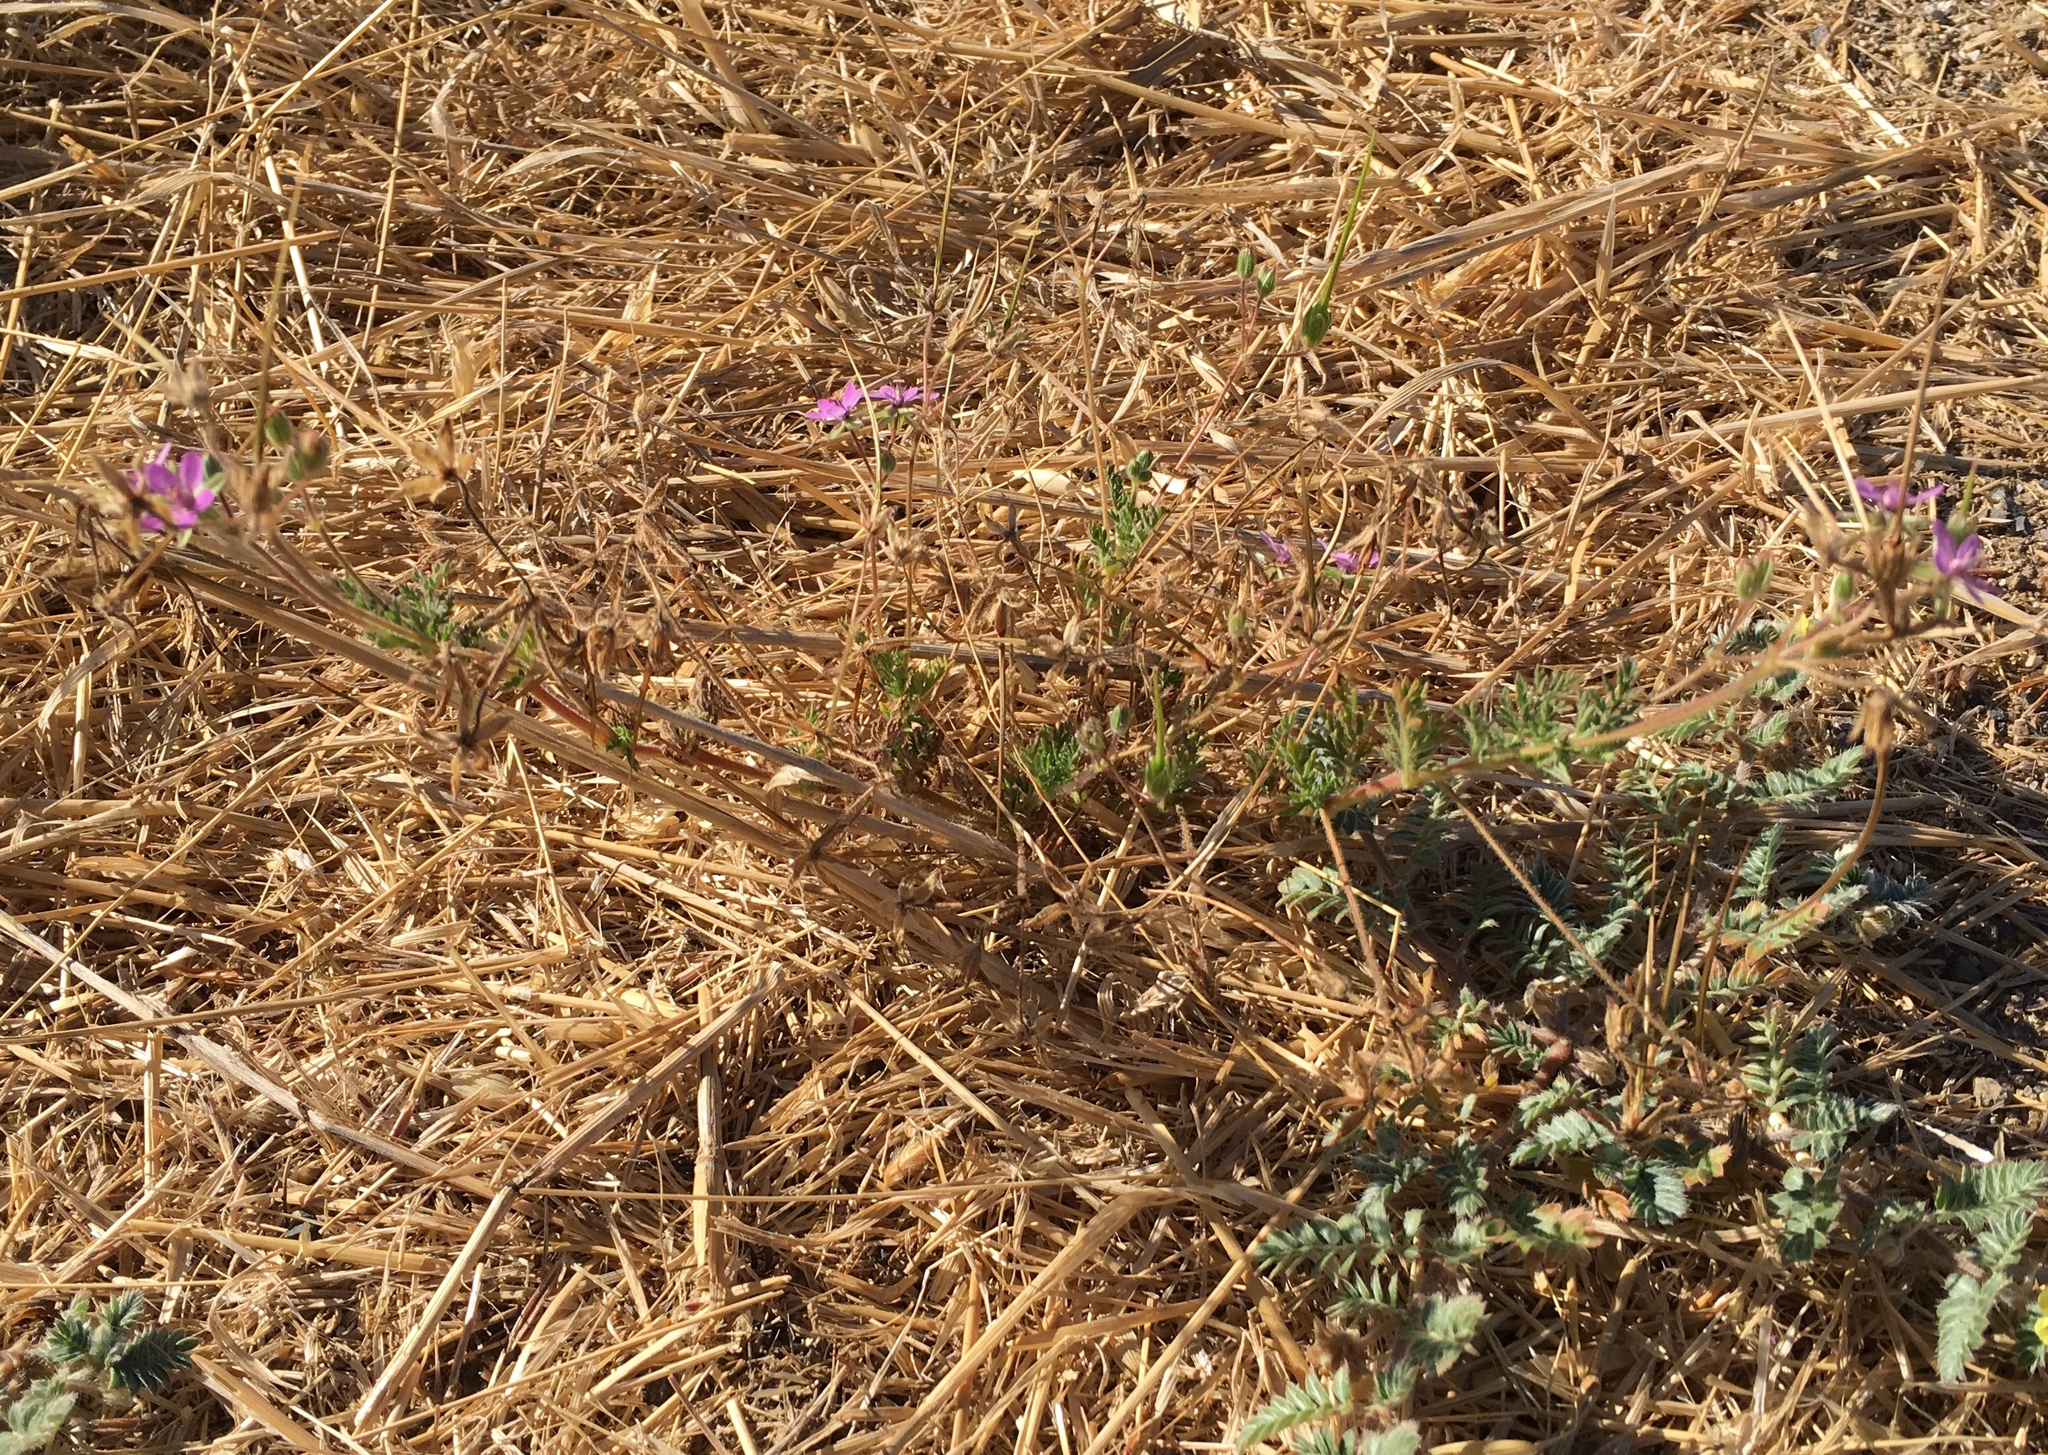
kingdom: Plantae
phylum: Tracheophyta
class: Magnoliopsida
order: Geraniales
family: Geraniaceae
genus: Erodium
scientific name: Erodium cicutarium
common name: Common stork's-bill
